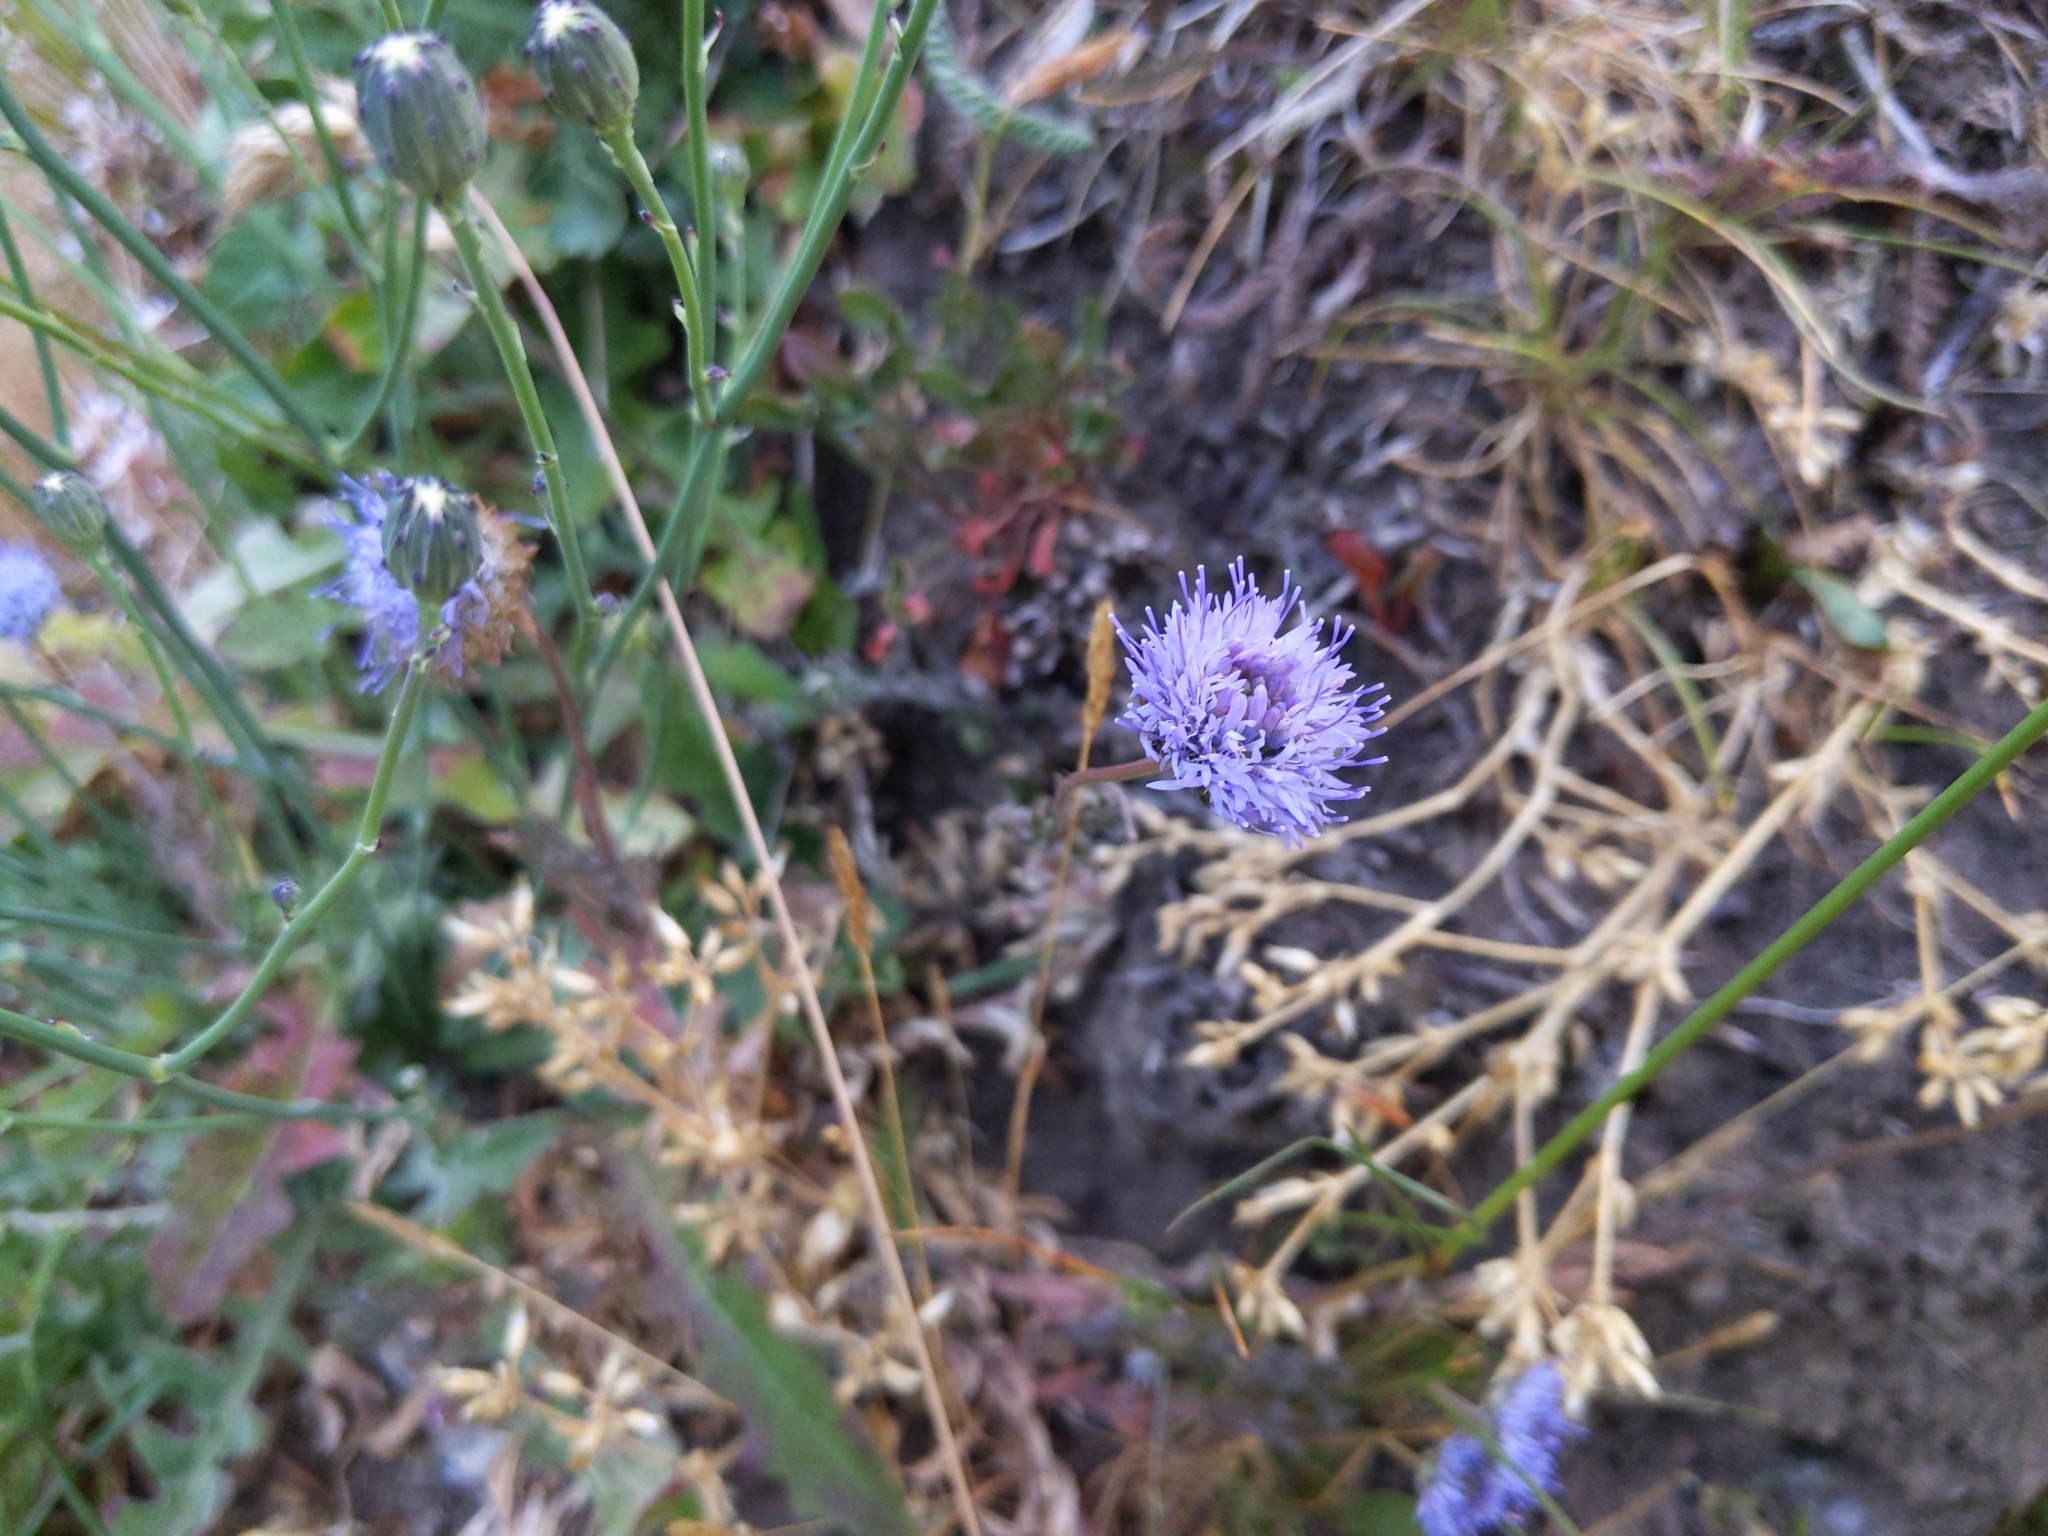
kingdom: Plantae
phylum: Tracheophyta
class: Magnoliopsida
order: Asterales
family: Campanulaceae
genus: Jasione
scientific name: Jasione montana
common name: Sheep's-bit
